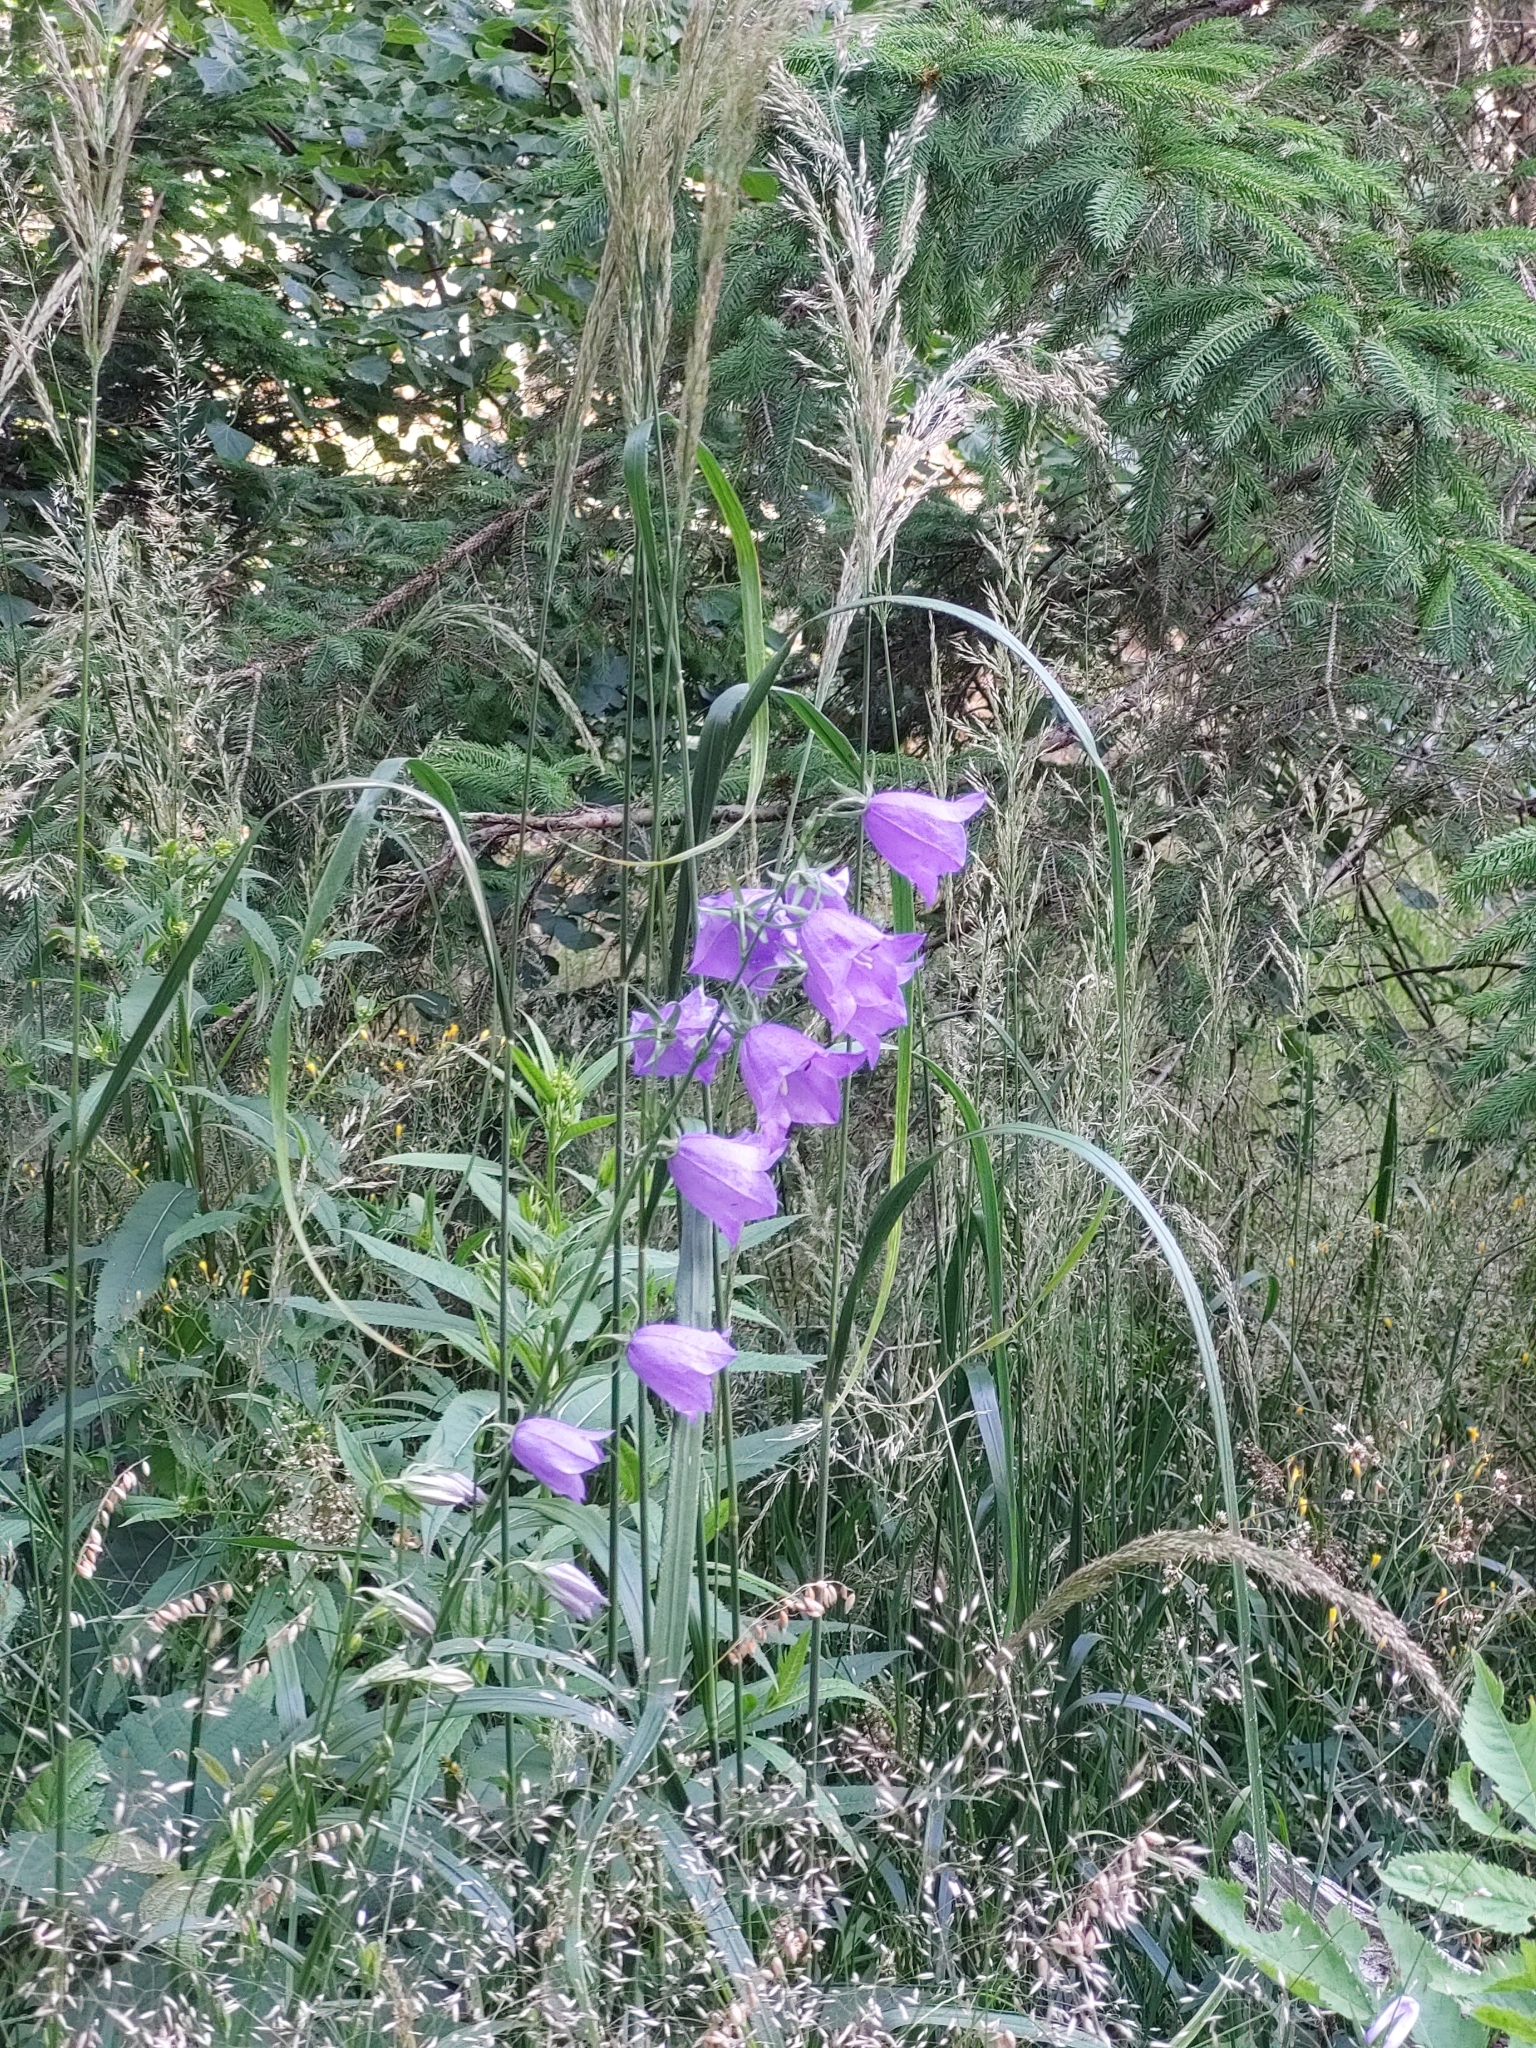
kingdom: Plantae
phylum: Tracheophyta
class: Magnoliopsida
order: Asterales
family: Campanulaceae
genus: Campanula
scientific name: Campanula persicifolia
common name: Peach-leaved bellflower
